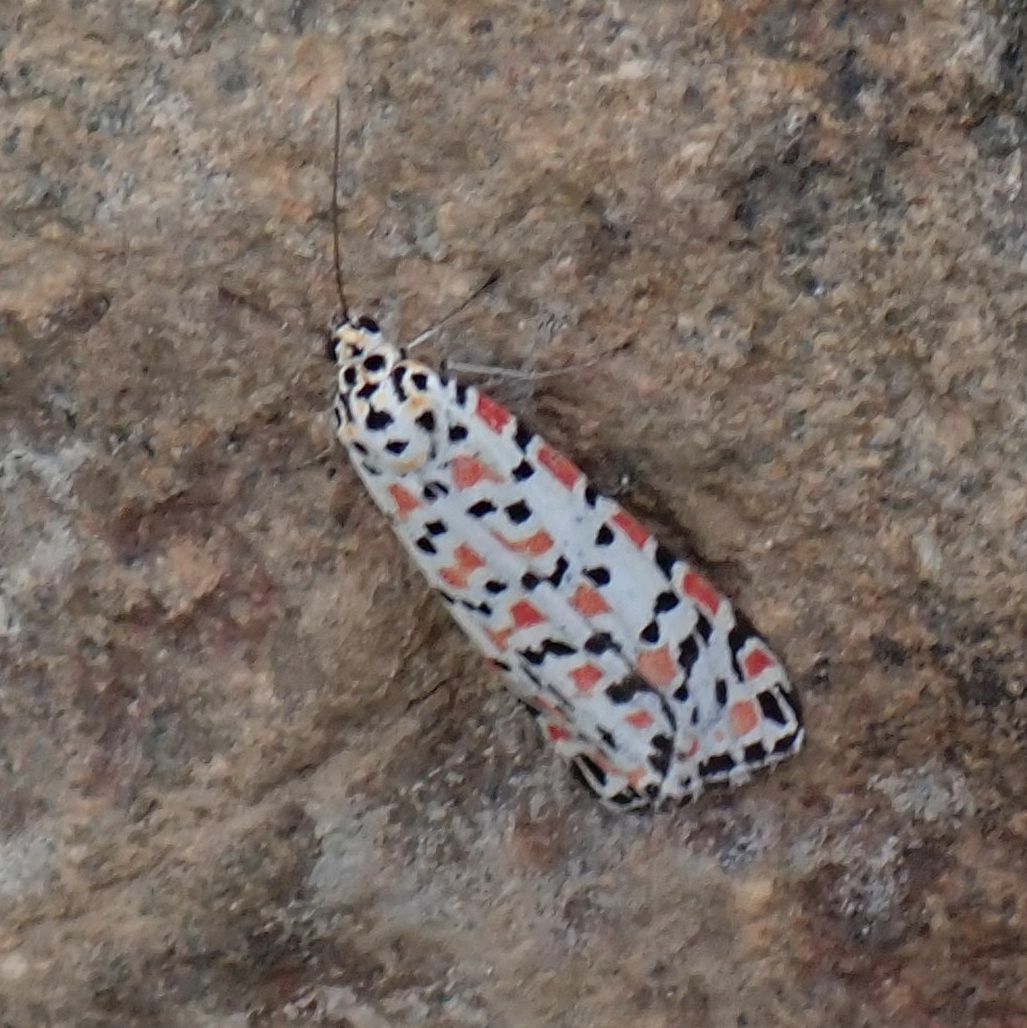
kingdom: Animalia
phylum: Arthropoda
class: Insecta
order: Lepidoptera
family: Erebidae
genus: Utetheisa
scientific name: Utetheisa pulchella
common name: Crimson speckled
